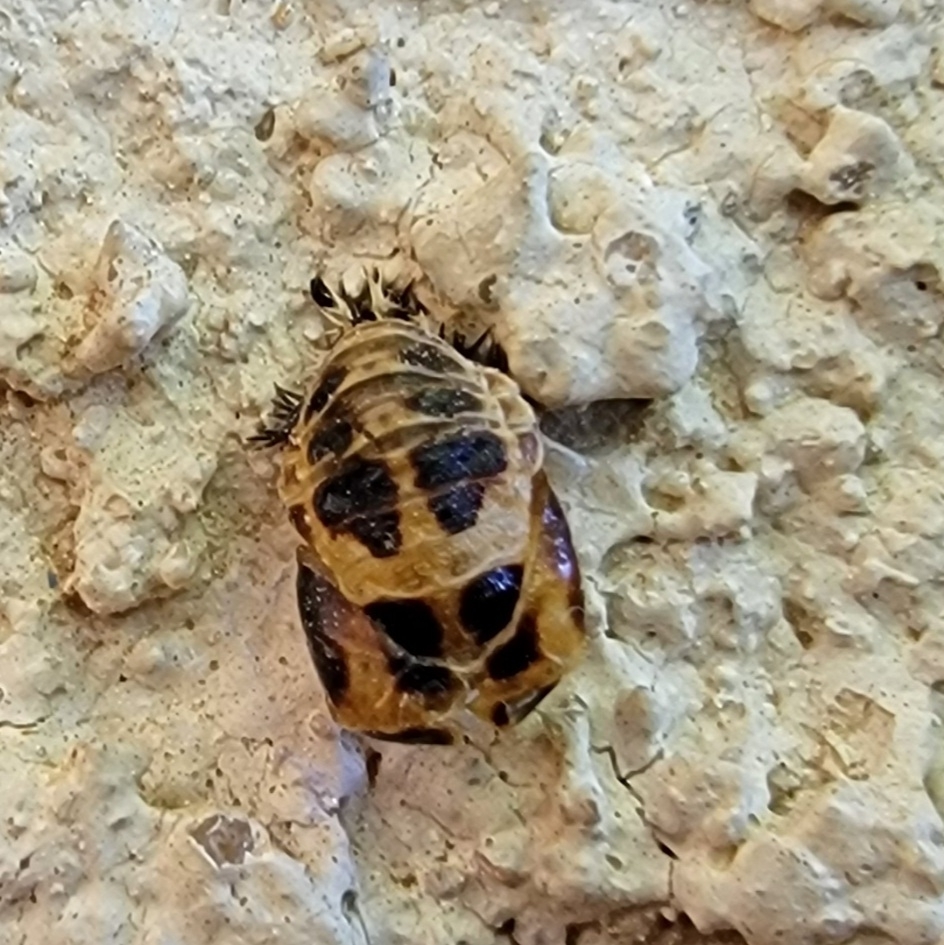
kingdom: Animalia
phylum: Arthropoda
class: Insecta
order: Coleoptera
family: Coccinellidae
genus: Harmonia
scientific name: Harmonia axyridis
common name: Harlequin ladybird
